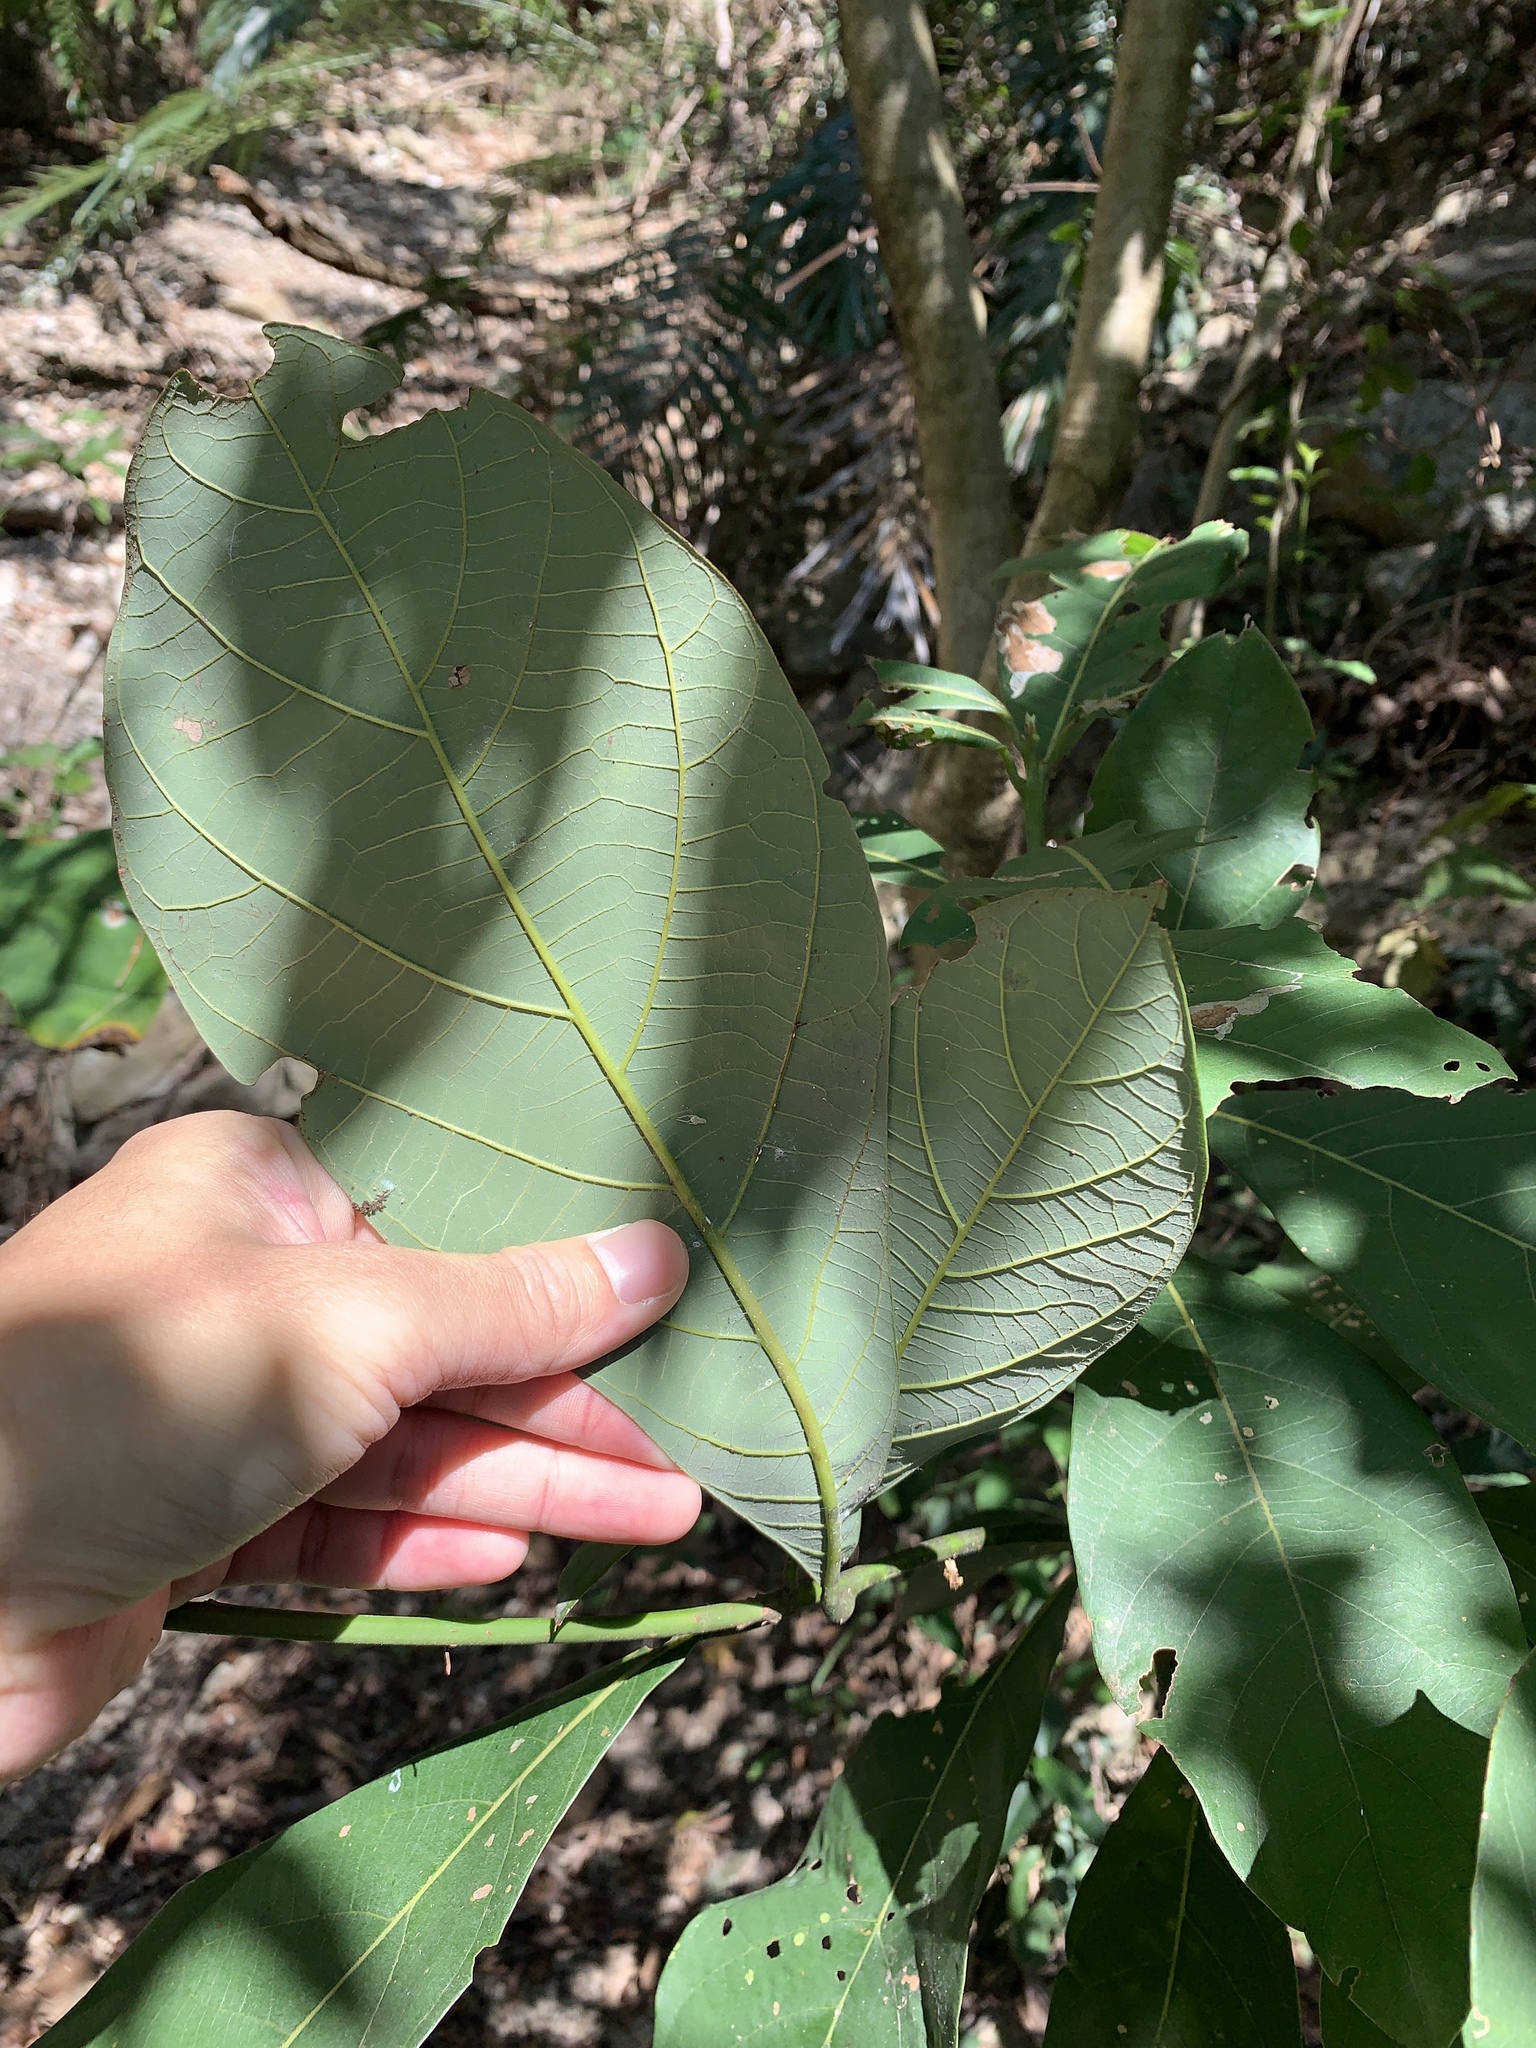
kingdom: Plantae
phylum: Tracheophyta
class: Magnoliopsida
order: Laurales
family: Lauraceae
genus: Phoebe
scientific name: Phoebe formosana
